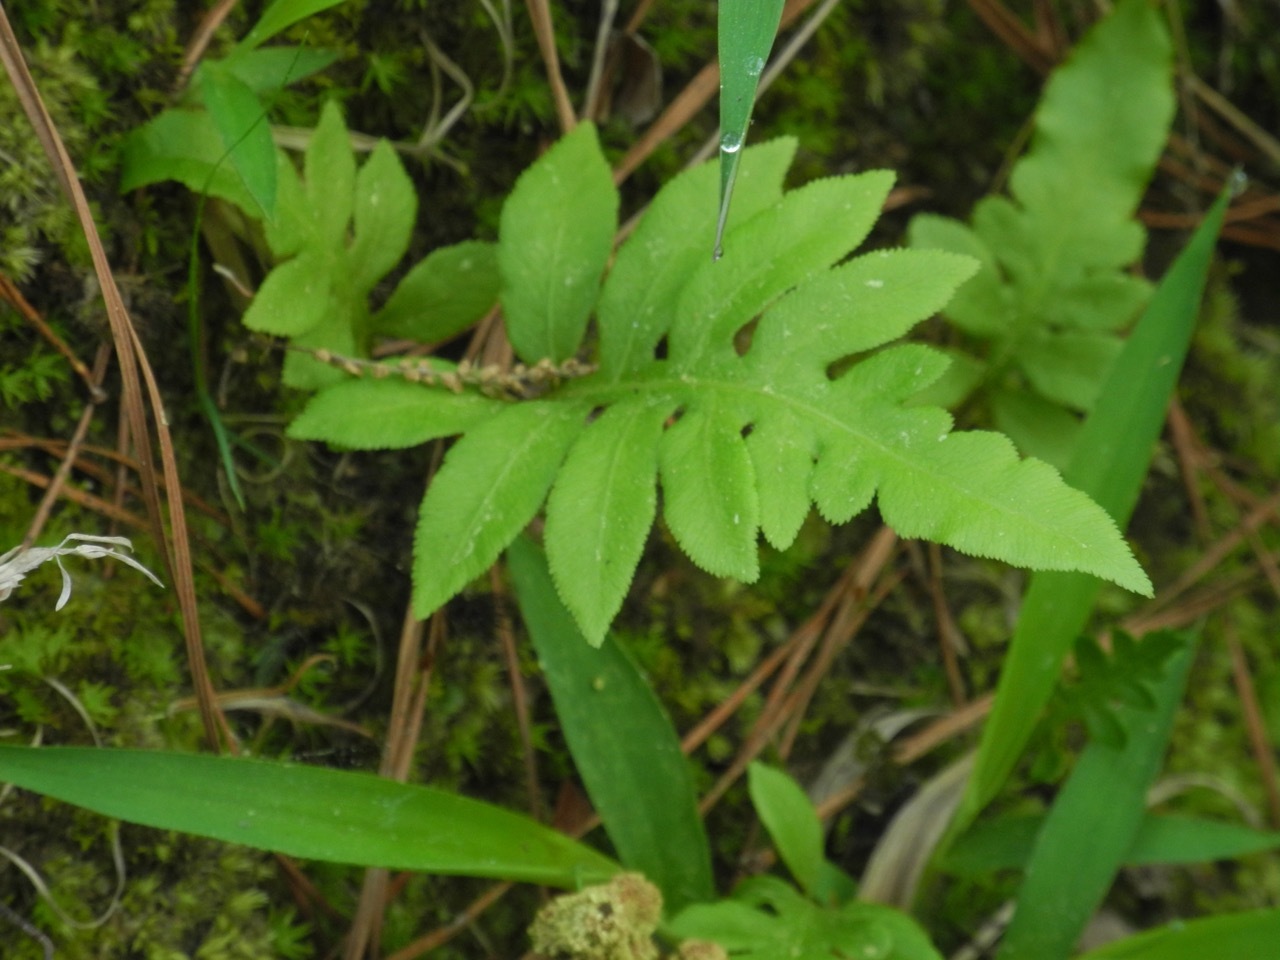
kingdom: Plantae
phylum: Tracheophyta
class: Polypodiopsida
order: Polypodiales
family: Blechnaceae
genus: Lorinseria
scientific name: Lorinseria areolata
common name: Dwarf chain fern
